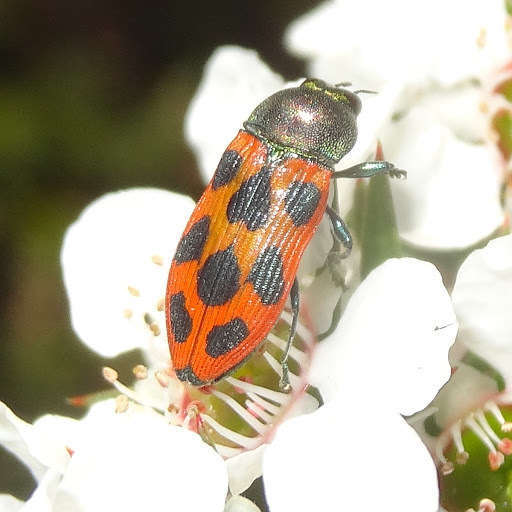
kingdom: Animalia
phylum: Arthropoda
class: Insecta
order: Coleoptera
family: Buprestidae
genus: Castiarina
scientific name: Castiarina octomaculata
